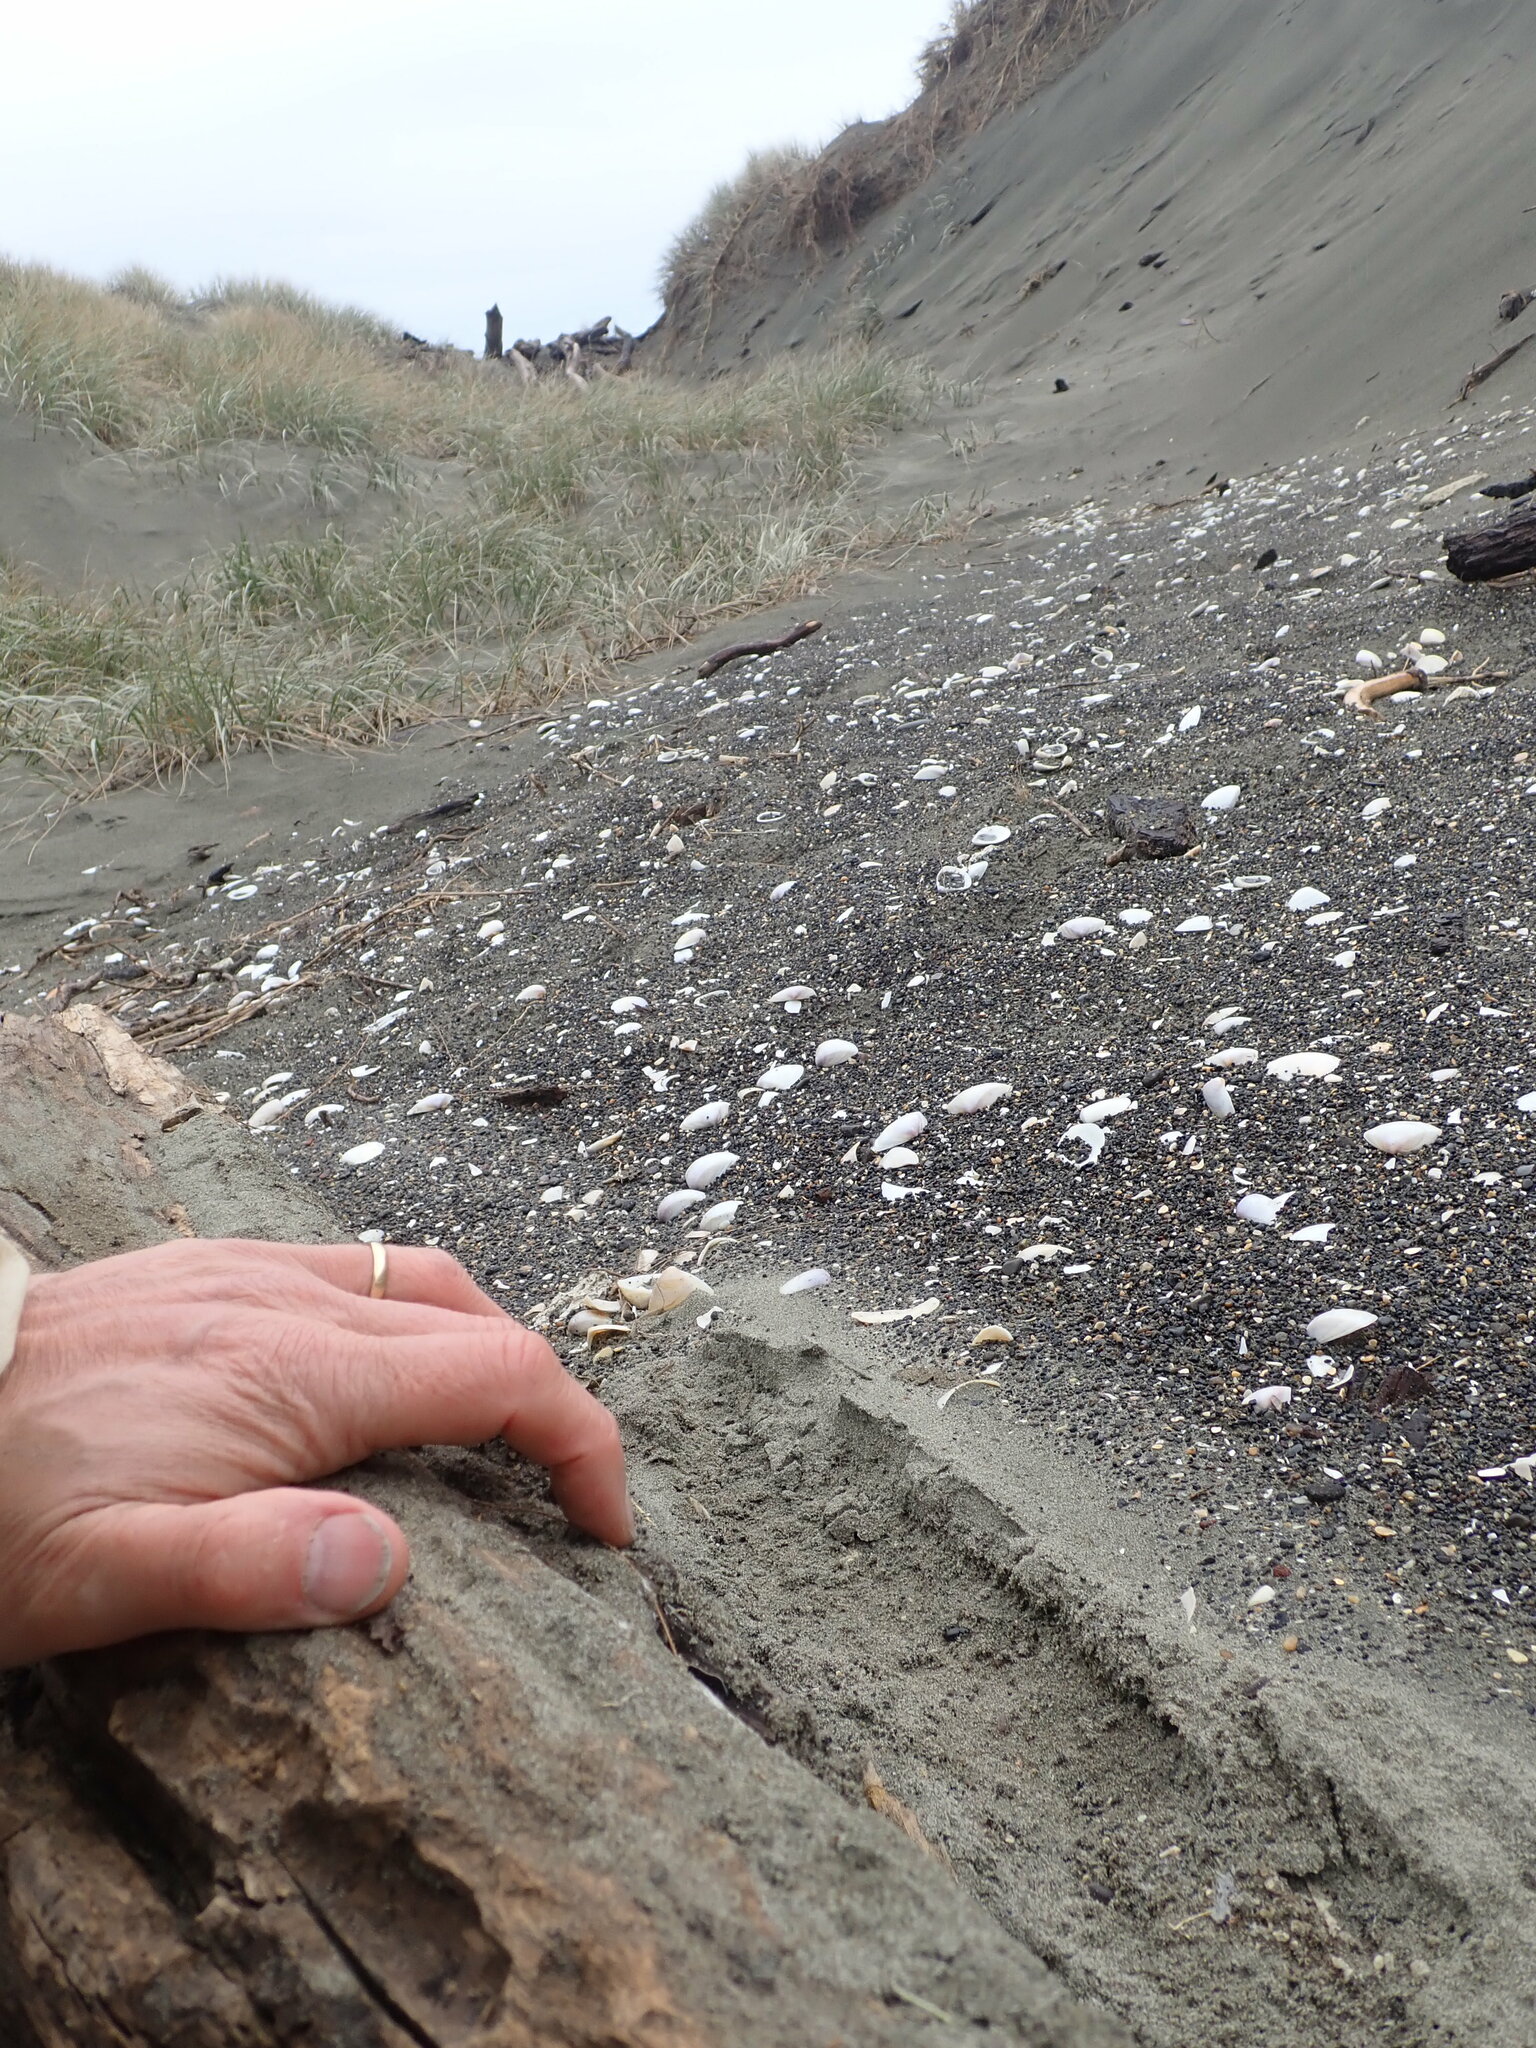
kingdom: Animalia
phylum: Platyhelminthes
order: Tricladida
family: Geoplanidae
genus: Caenoplana
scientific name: Caenoplana coerulea
